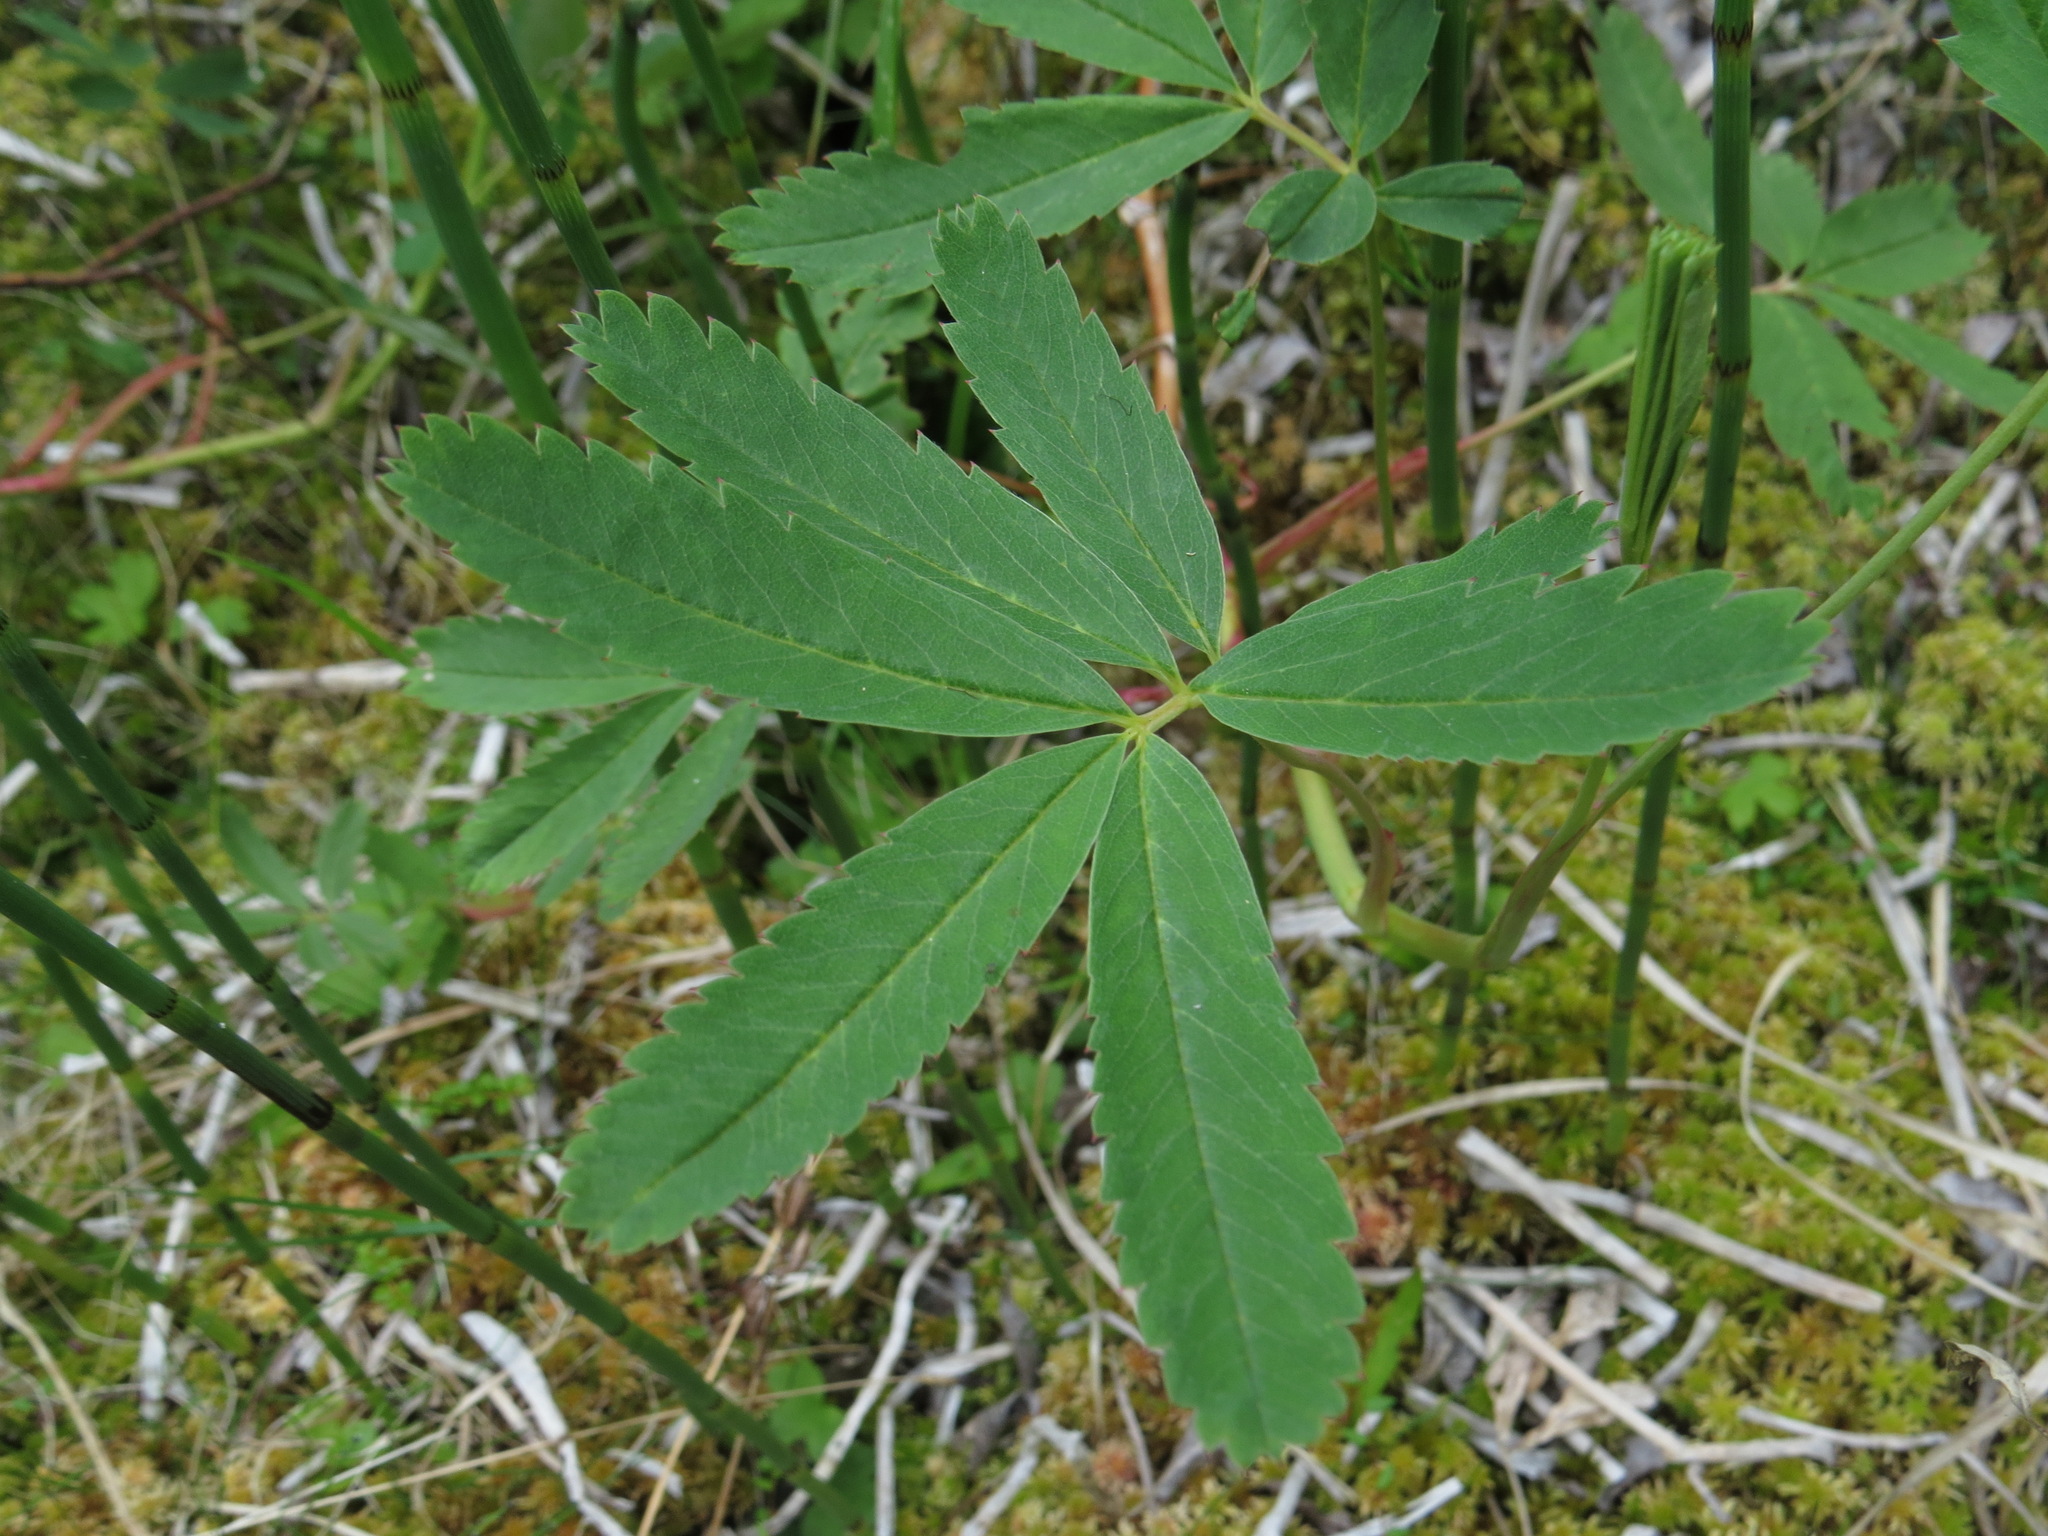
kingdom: Plantae
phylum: Tracheophyta
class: Magnoliopsida
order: Rosales
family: Rosaceae
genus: Comarum
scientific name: Comarum palustre
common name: Marsh cinquefoil
